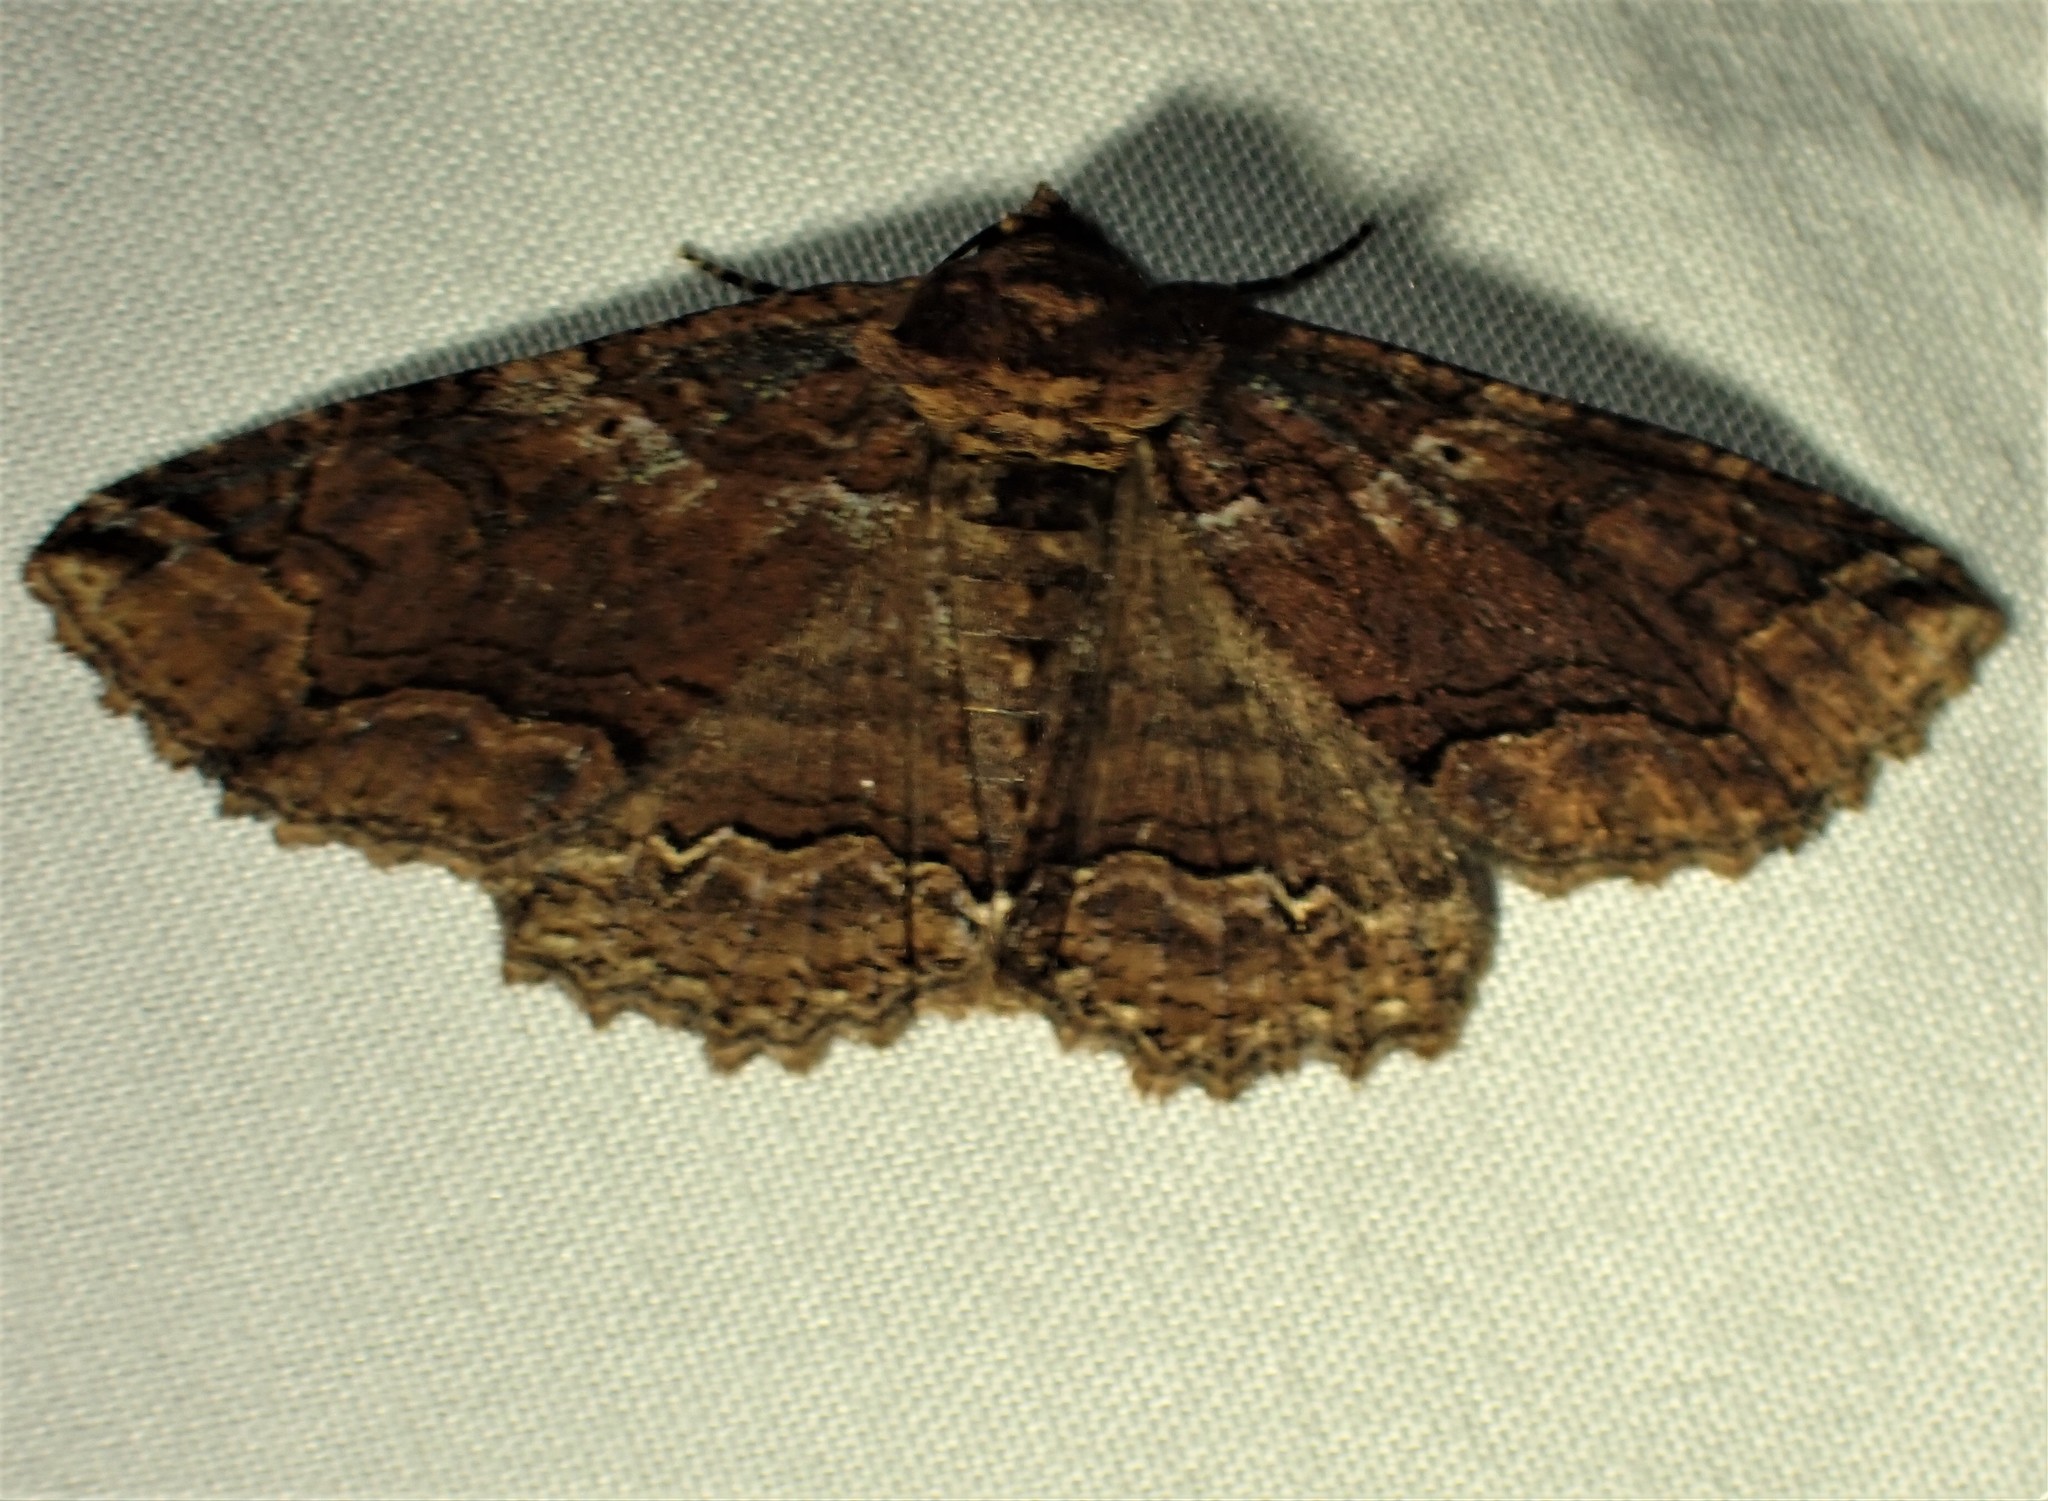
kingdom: Animalia
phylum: Arthropoda
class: Insecta
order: Lepidoptera
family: Erebidae
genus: Zale
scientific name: Zale minerea
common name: Colorful zale moth
